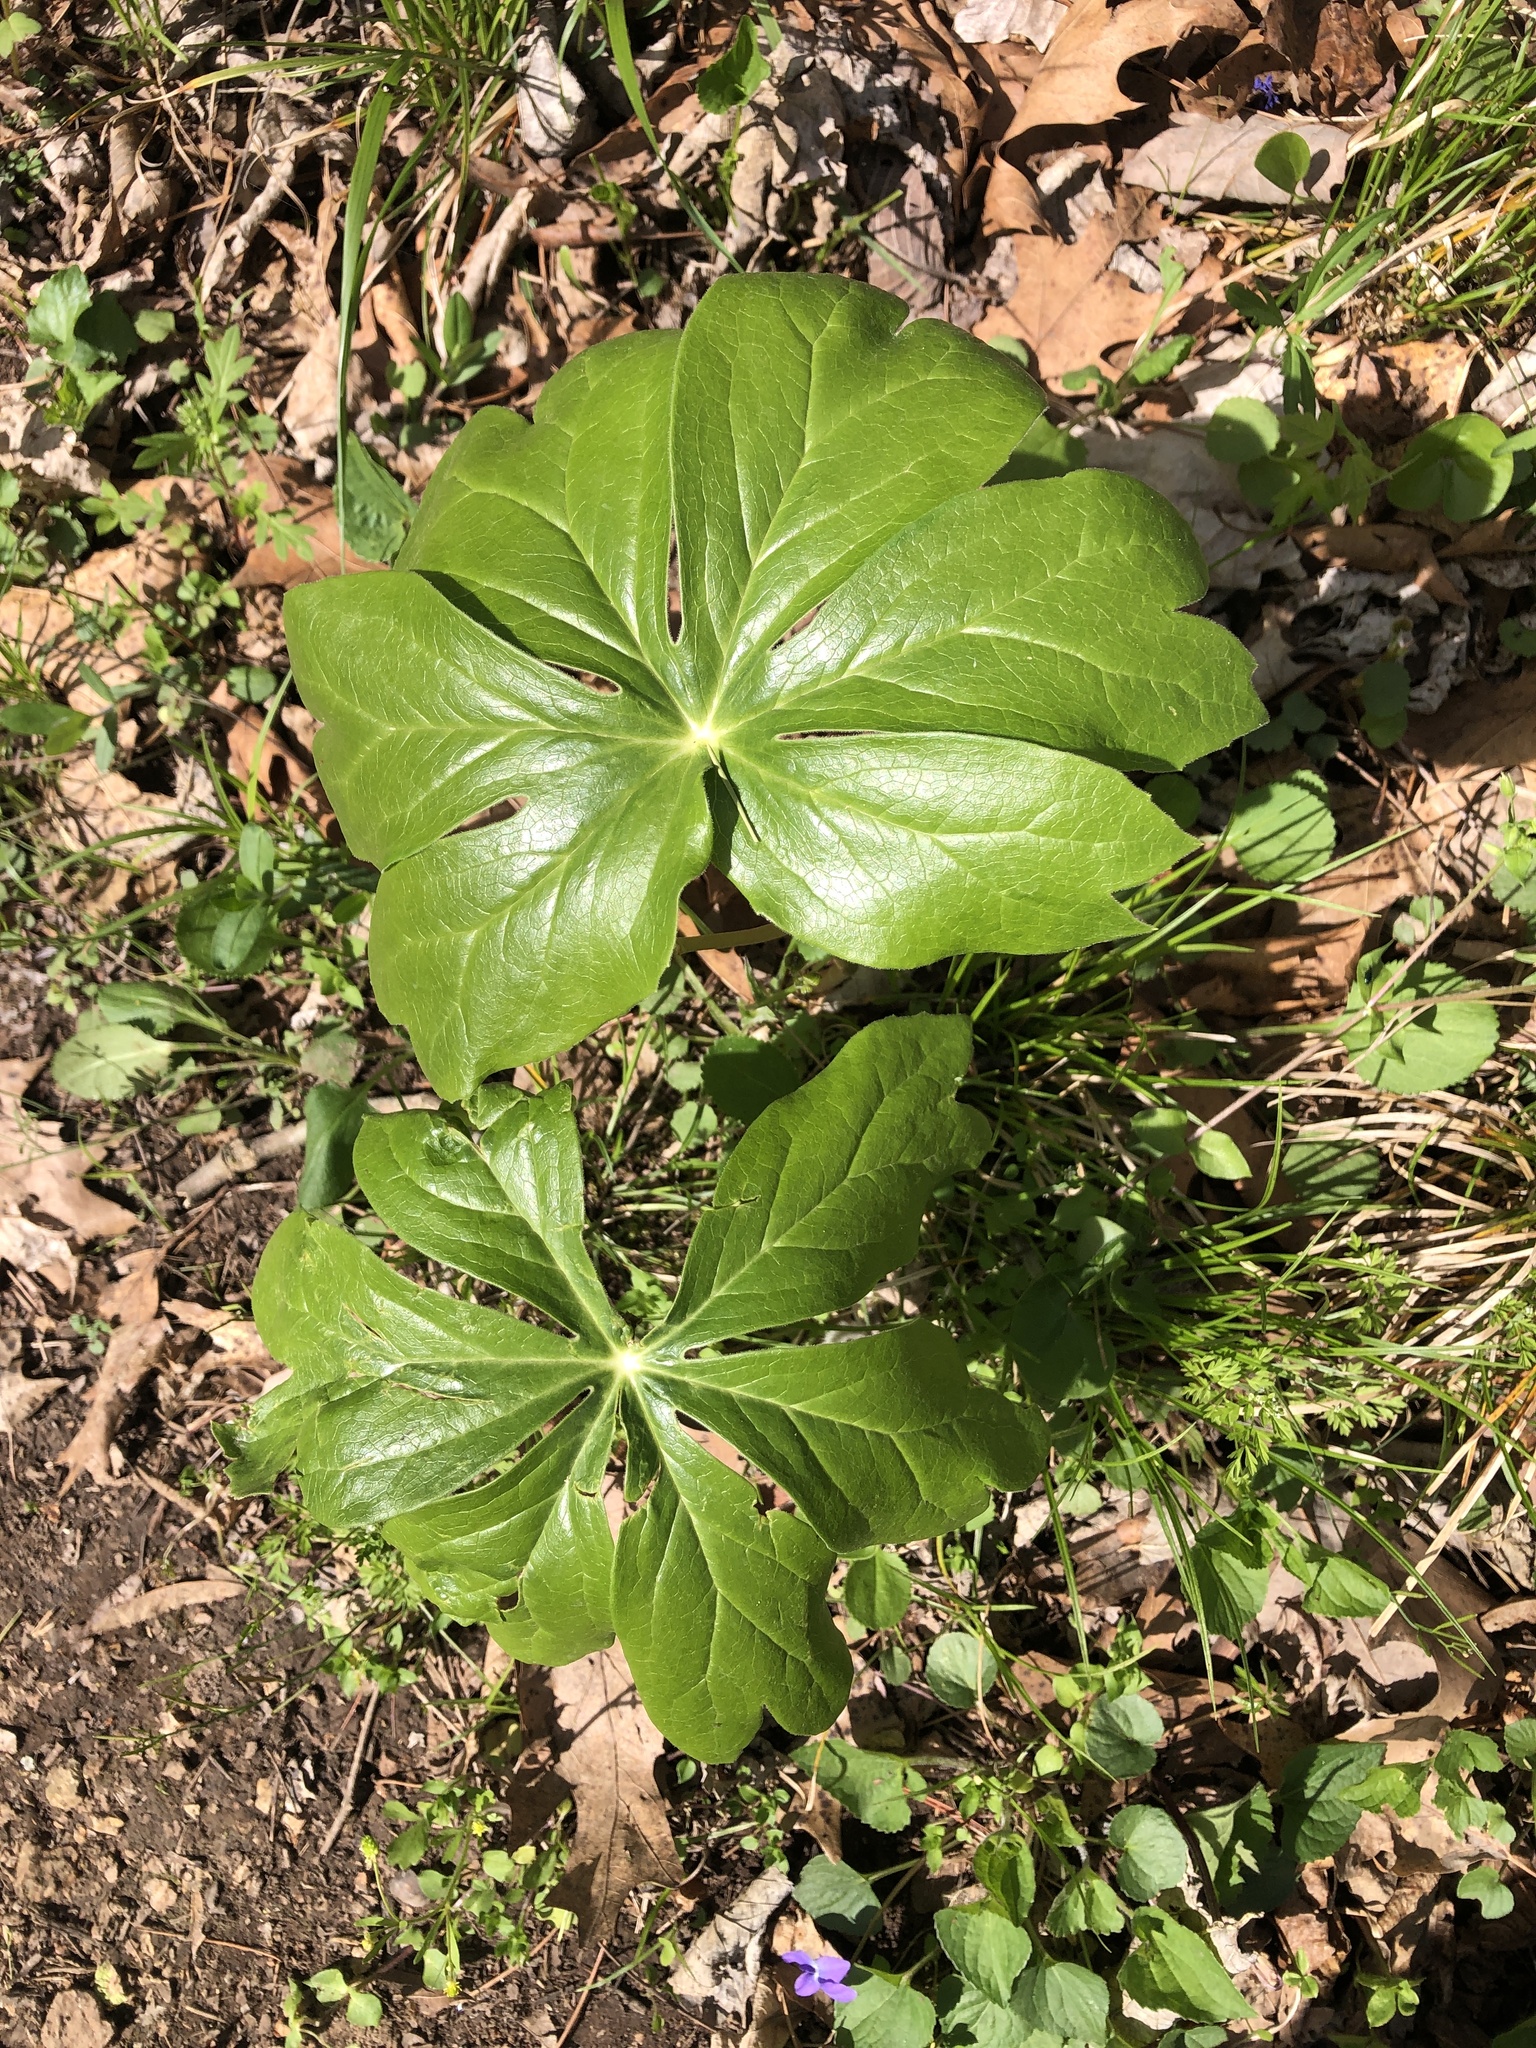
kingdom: Plantae
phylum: Tracheophyta
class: Magnoliopsida
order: Ranunculales
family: Berberidaceae
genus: Podophyllum
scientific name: Podophyllum peltatum
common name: Wild mandrake
